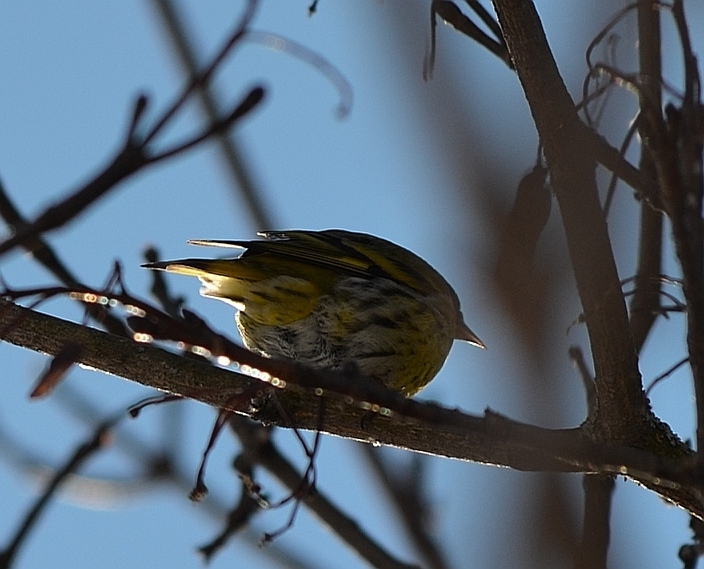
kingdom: Animalia
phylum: Chordata
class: Aves
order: Passeriformes
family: Fringillidae
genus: Spinus
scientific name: Spinus spinus
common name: Eurasian siskin
